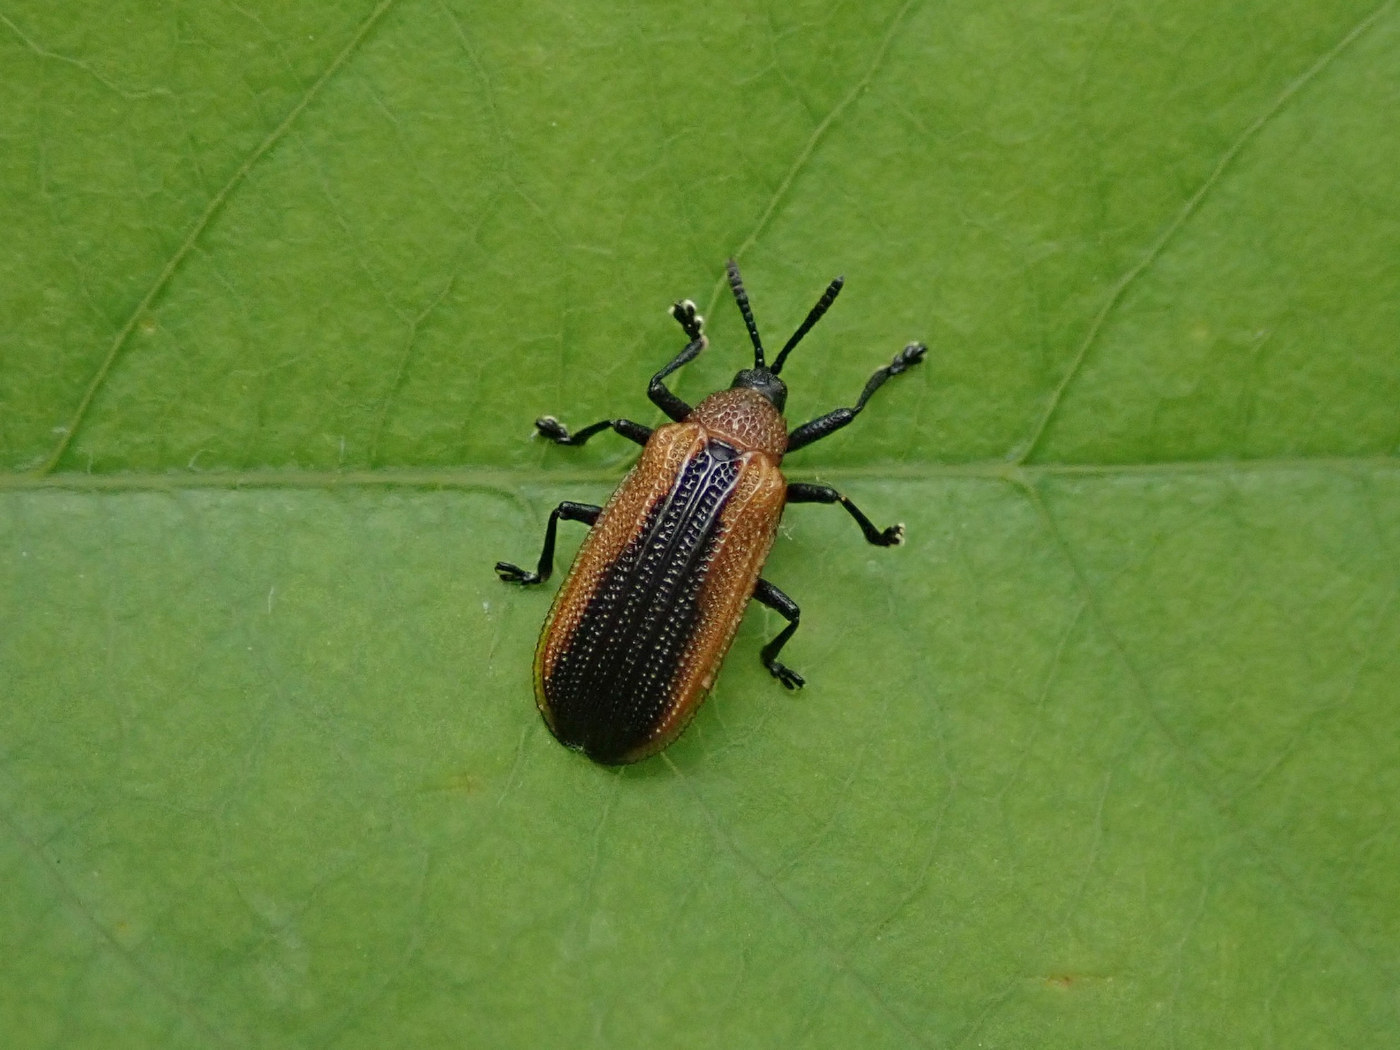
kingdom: Animalia
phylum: Arthropoda
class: Insecta
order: Coleoptera
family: Chrysomelidae
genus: Odontota
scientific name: Odontota dorsalis
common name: Locust leaf-miner beetle
